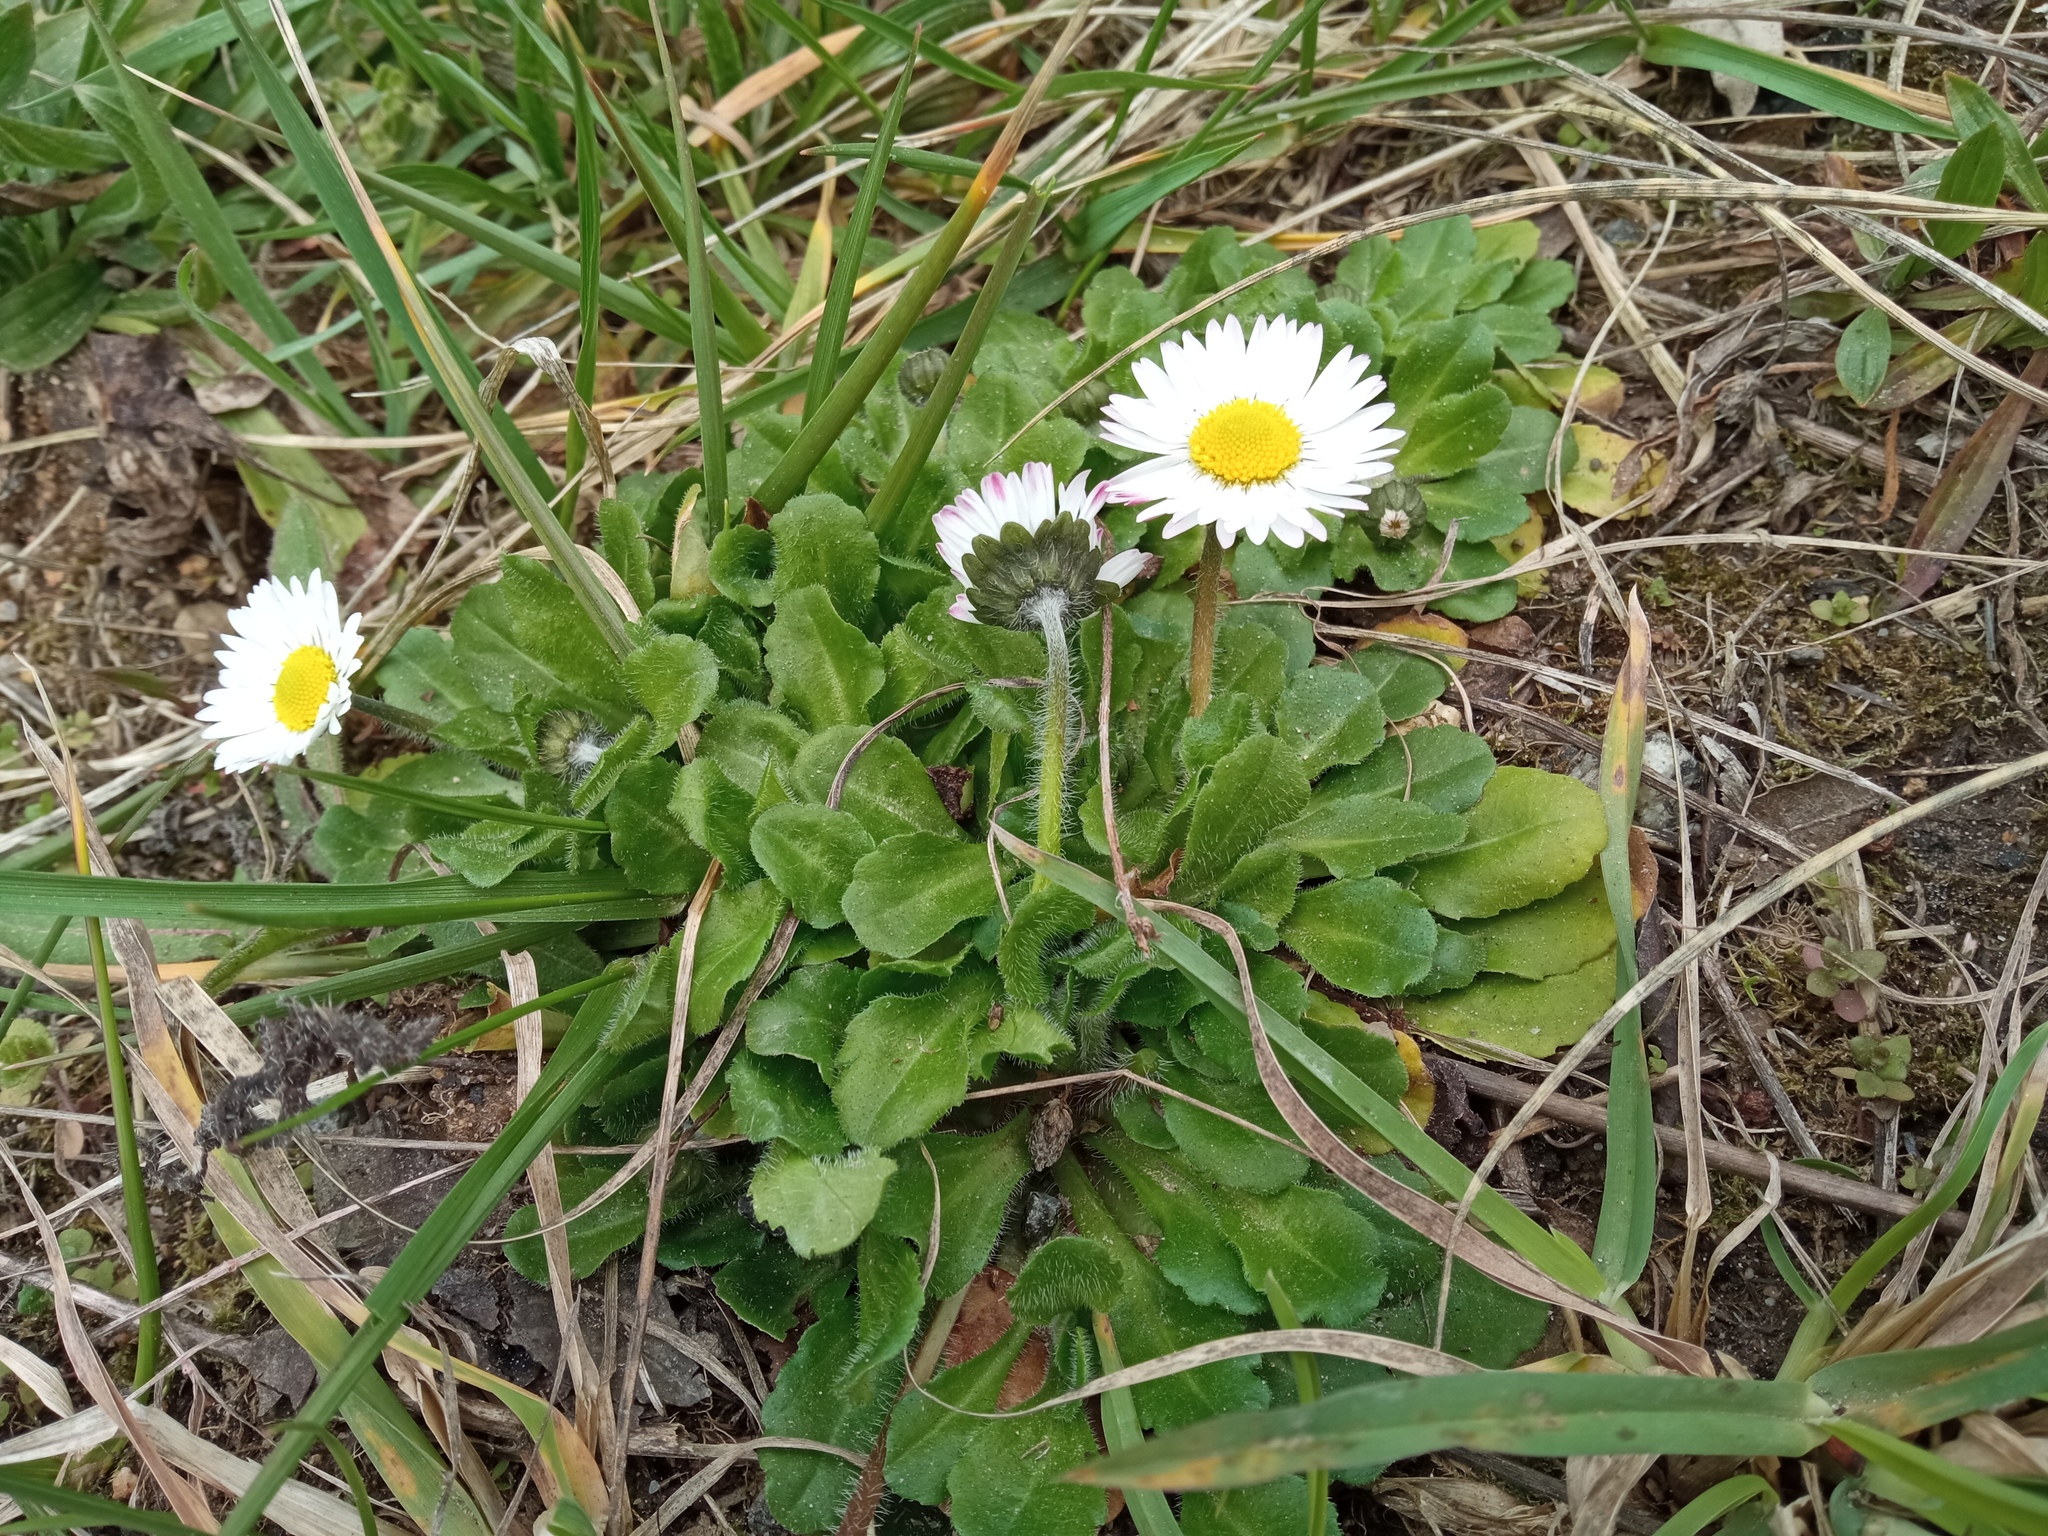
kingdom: Plantae
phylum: Tracheophyta
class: Magnoliopsida
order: Asterales
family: Asteraceae
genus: Bellis
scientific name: Bellis perennis
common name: Lawndaisy
